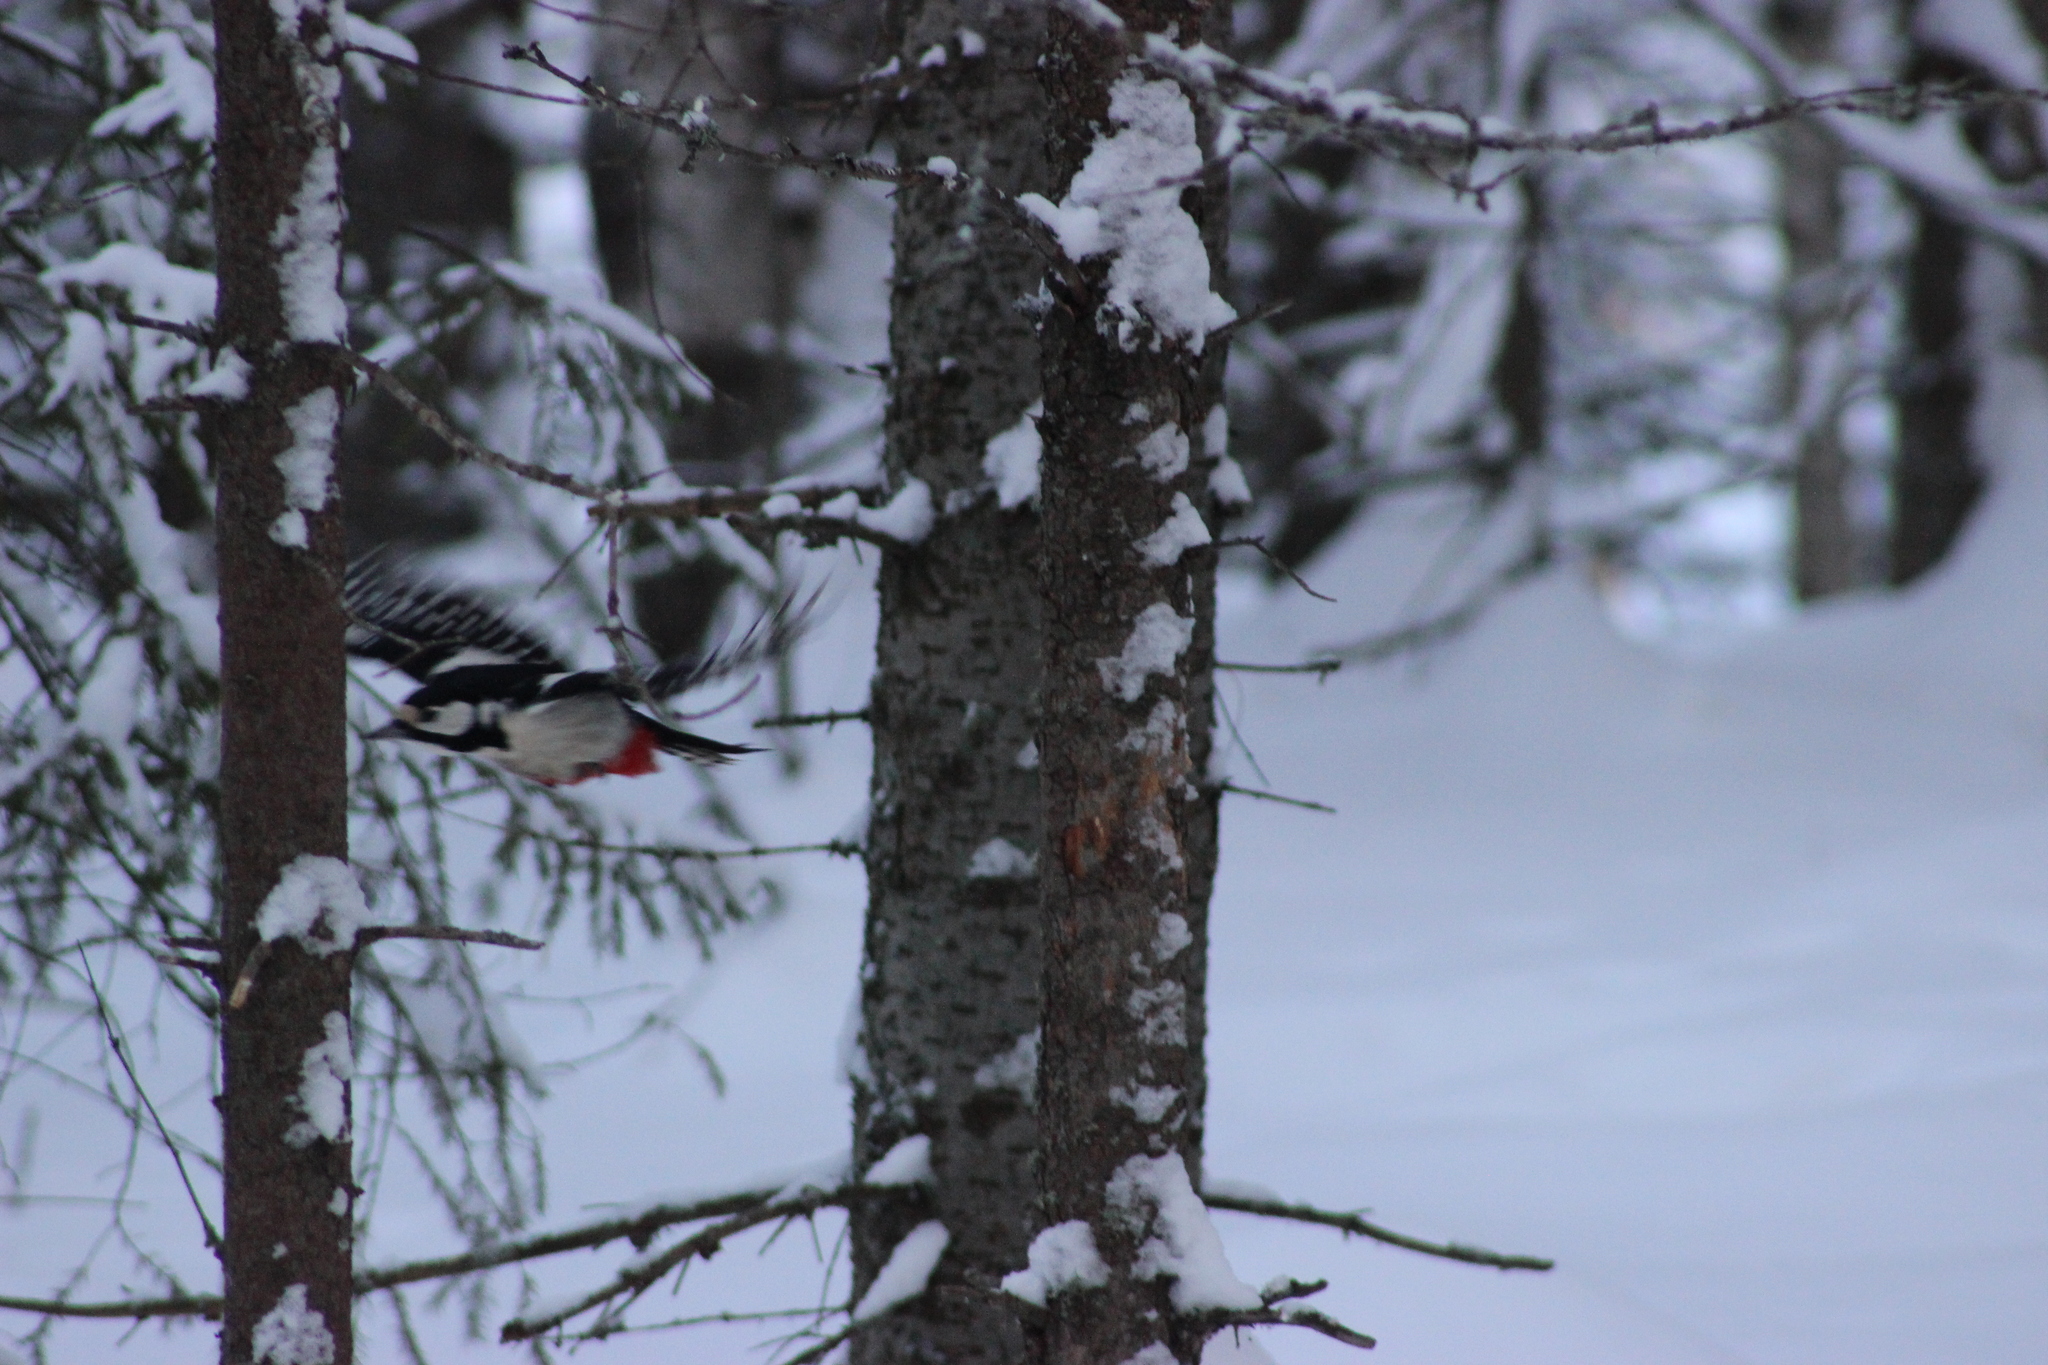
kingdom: Animalia
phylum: Chordata
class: Aves
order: Piciformes
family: Picidae
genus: Dendrocopos
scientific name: Dendrocopos major
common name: Great spotted woodpecker
